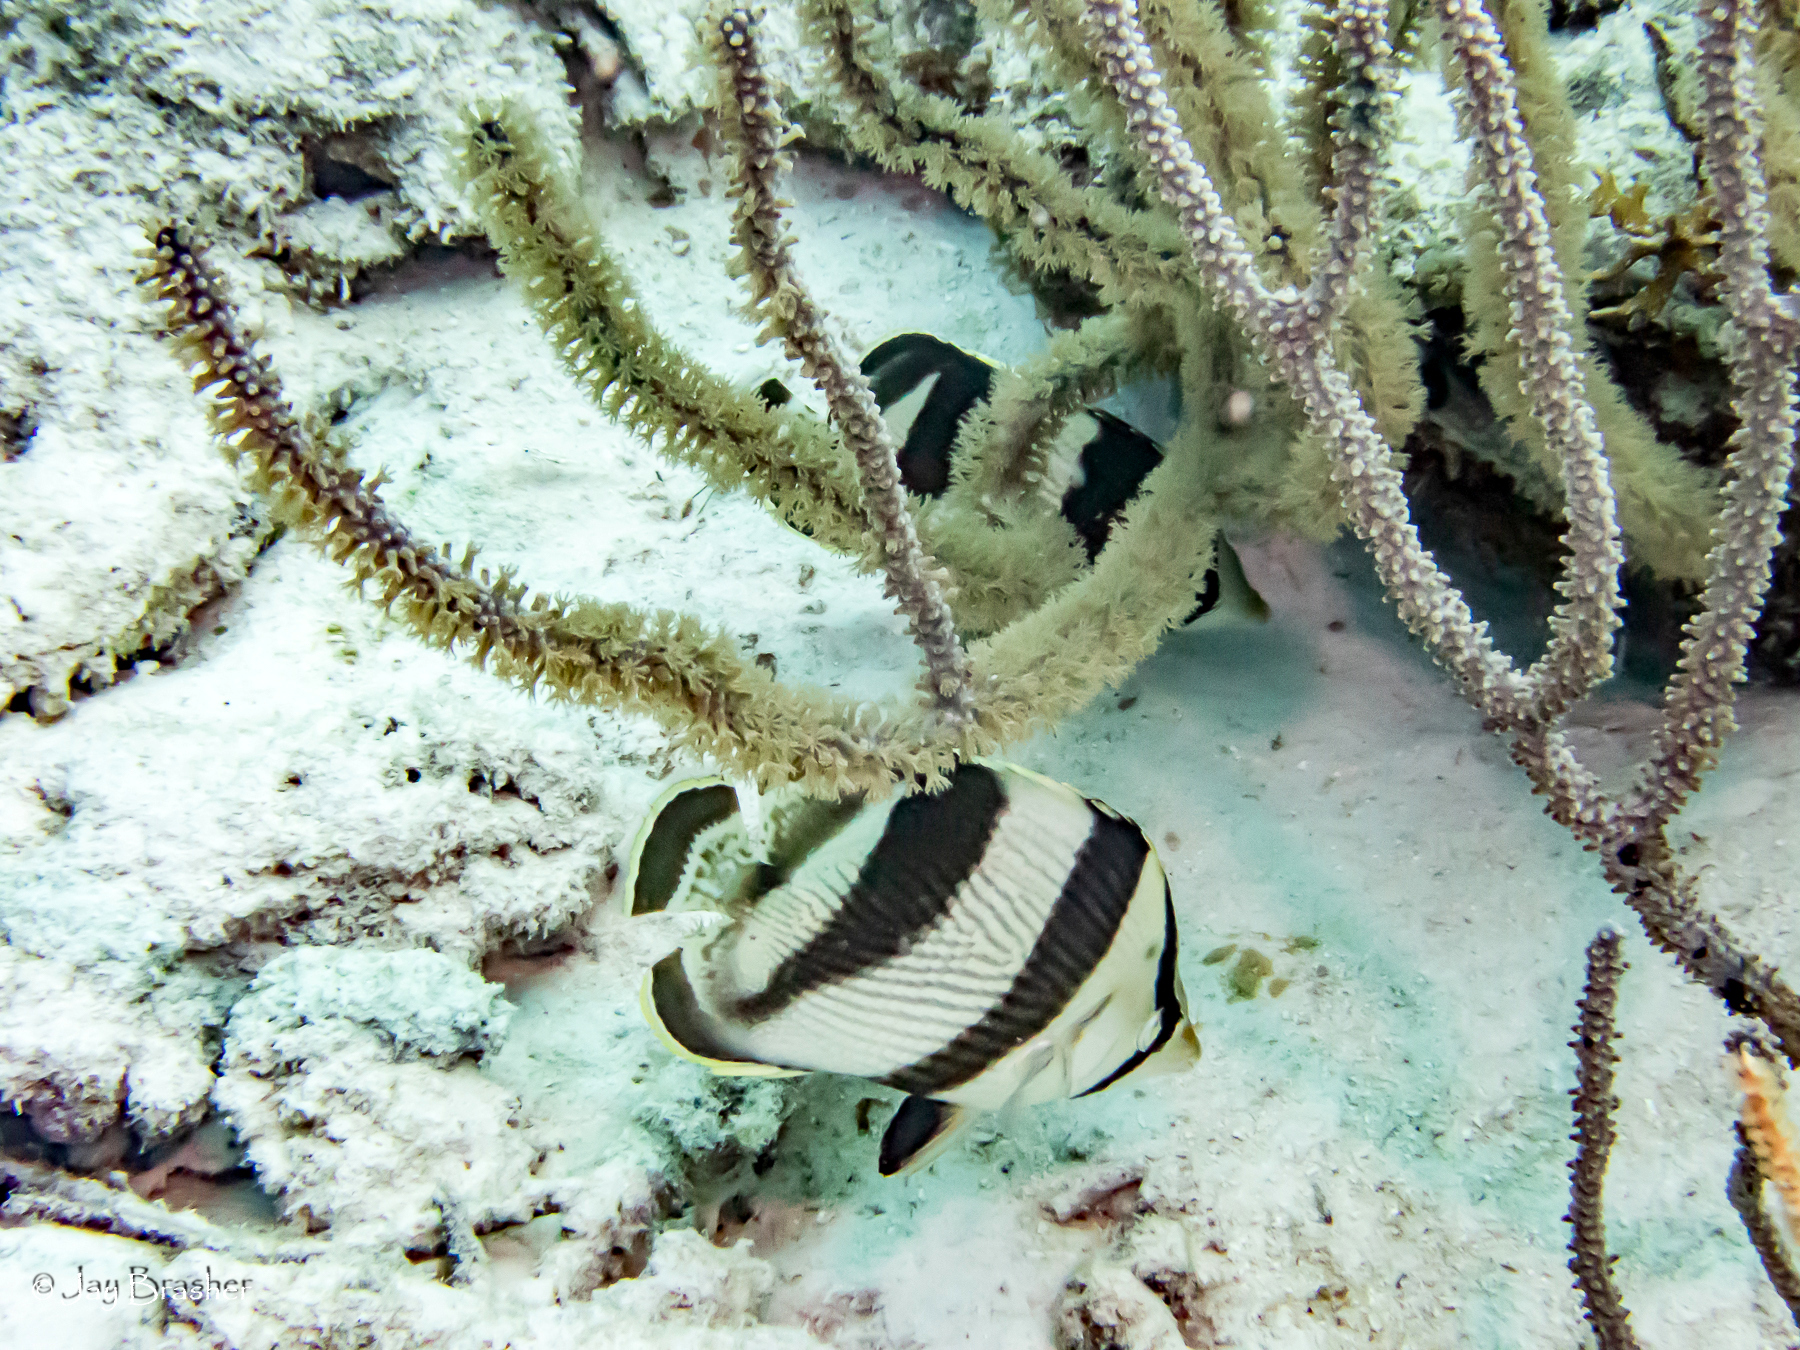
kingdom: Animalia
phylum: Chordata
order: Perciformes
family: Chaetodontidae
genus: Chaetodon
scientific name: Chaetodon striatus
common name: Banded butterflyfish
